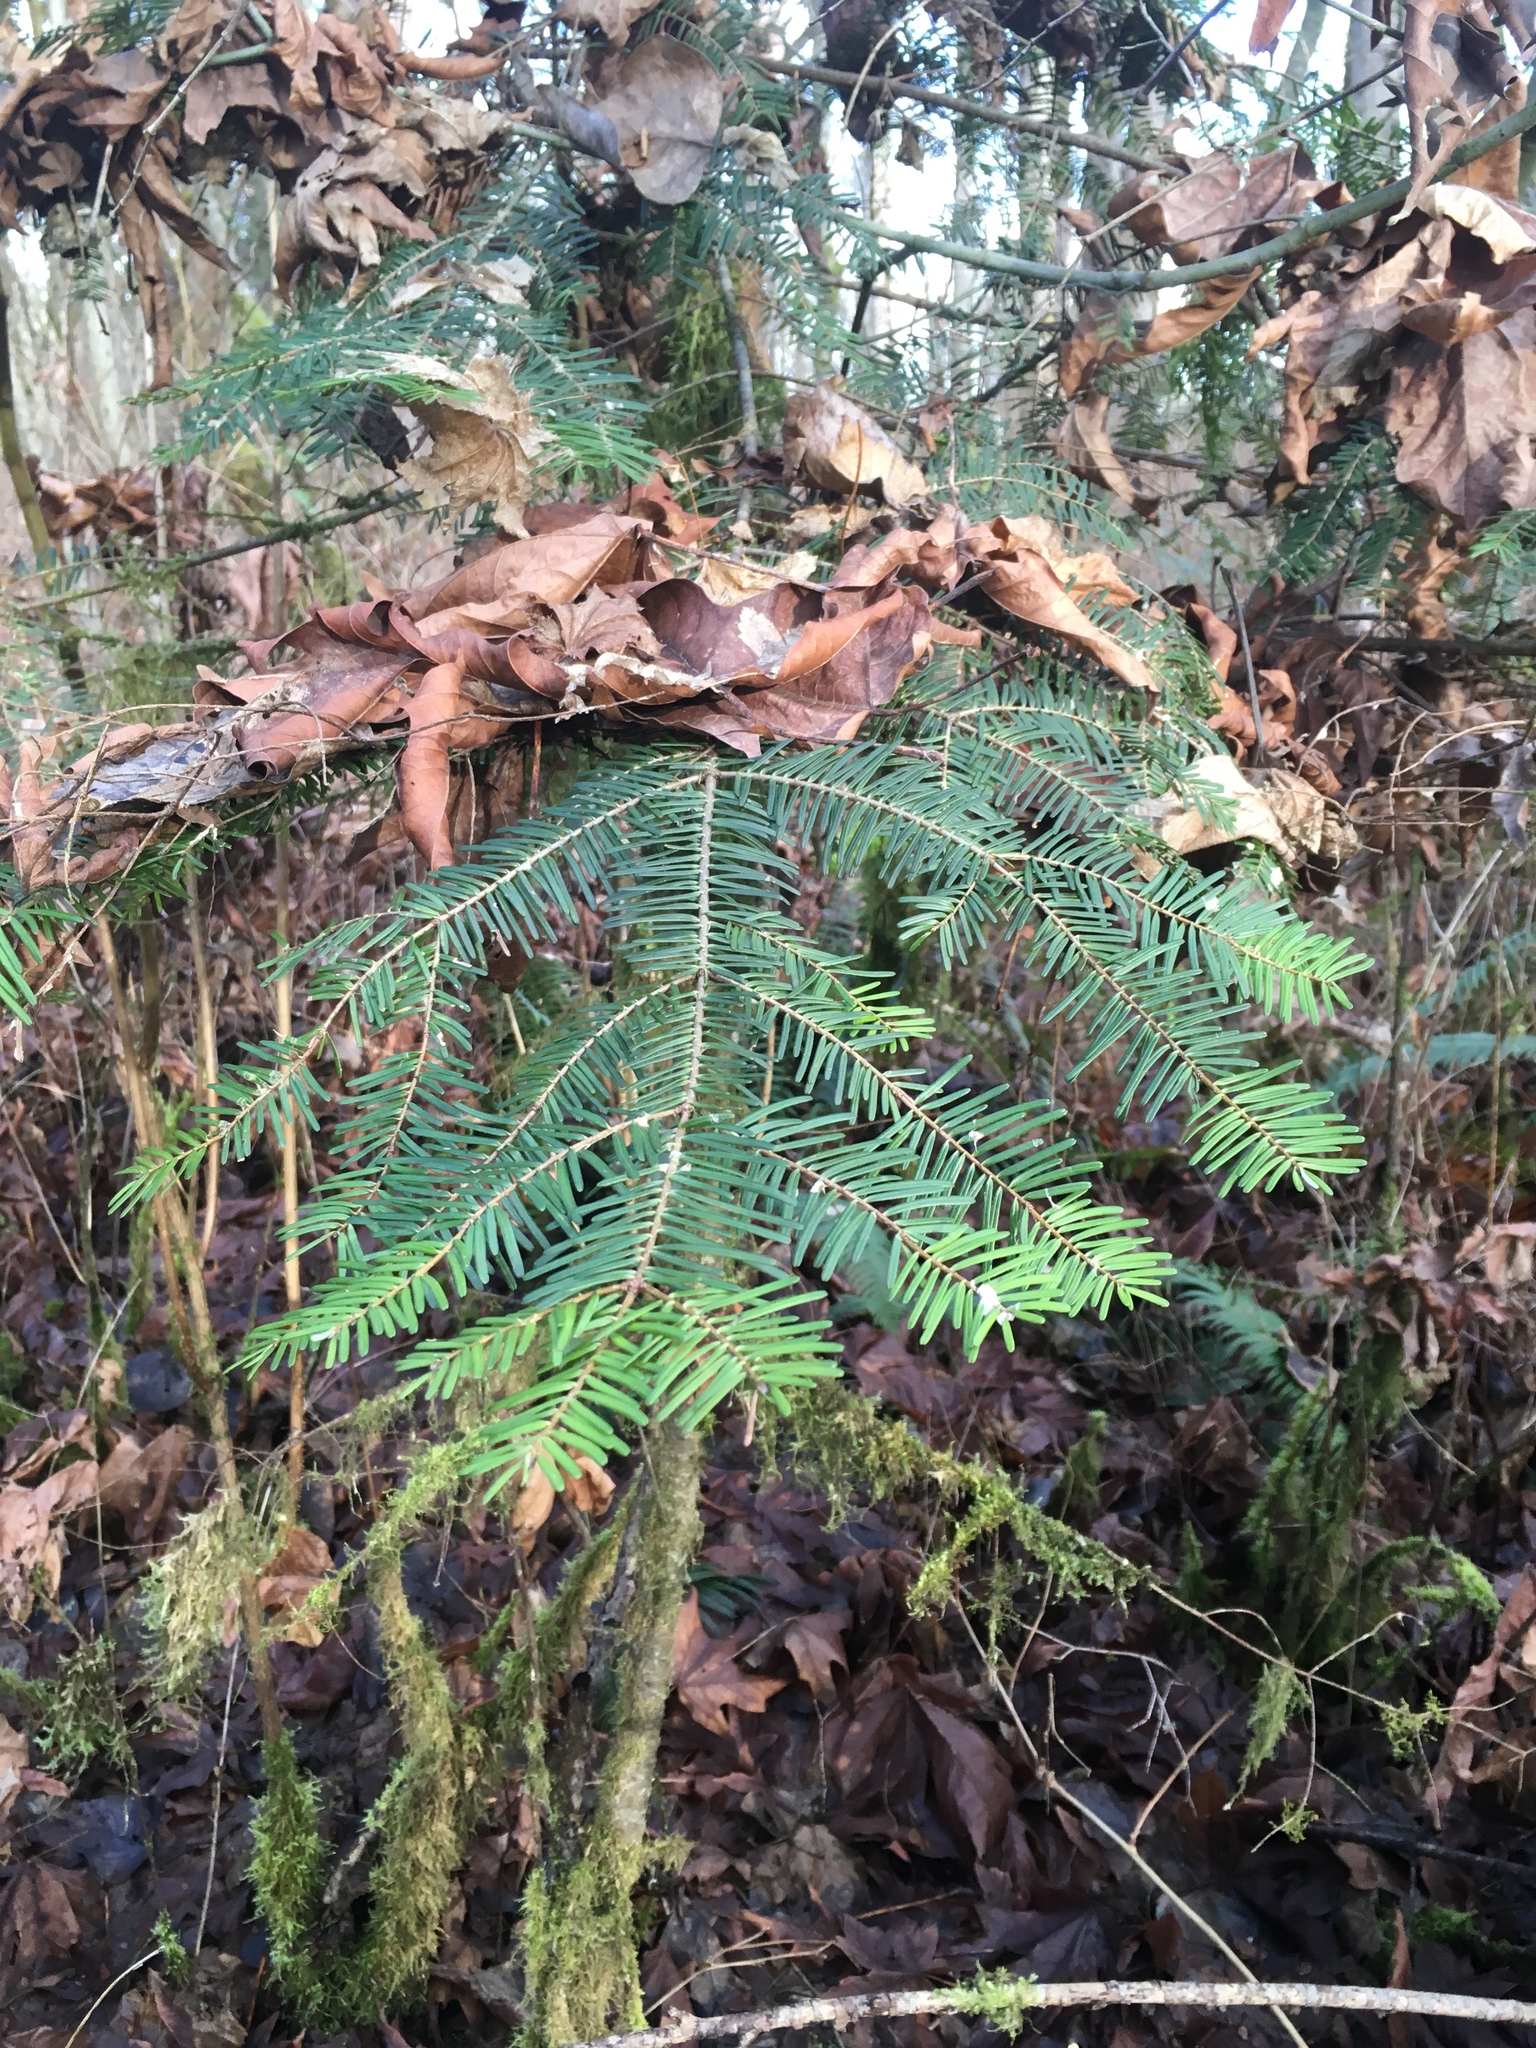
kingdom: Plantae
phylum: Tracheophyta
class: Pinopsida
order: Pinales
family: Pinaceae
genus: Abies
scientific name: Abies grandis
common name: Giant fir
